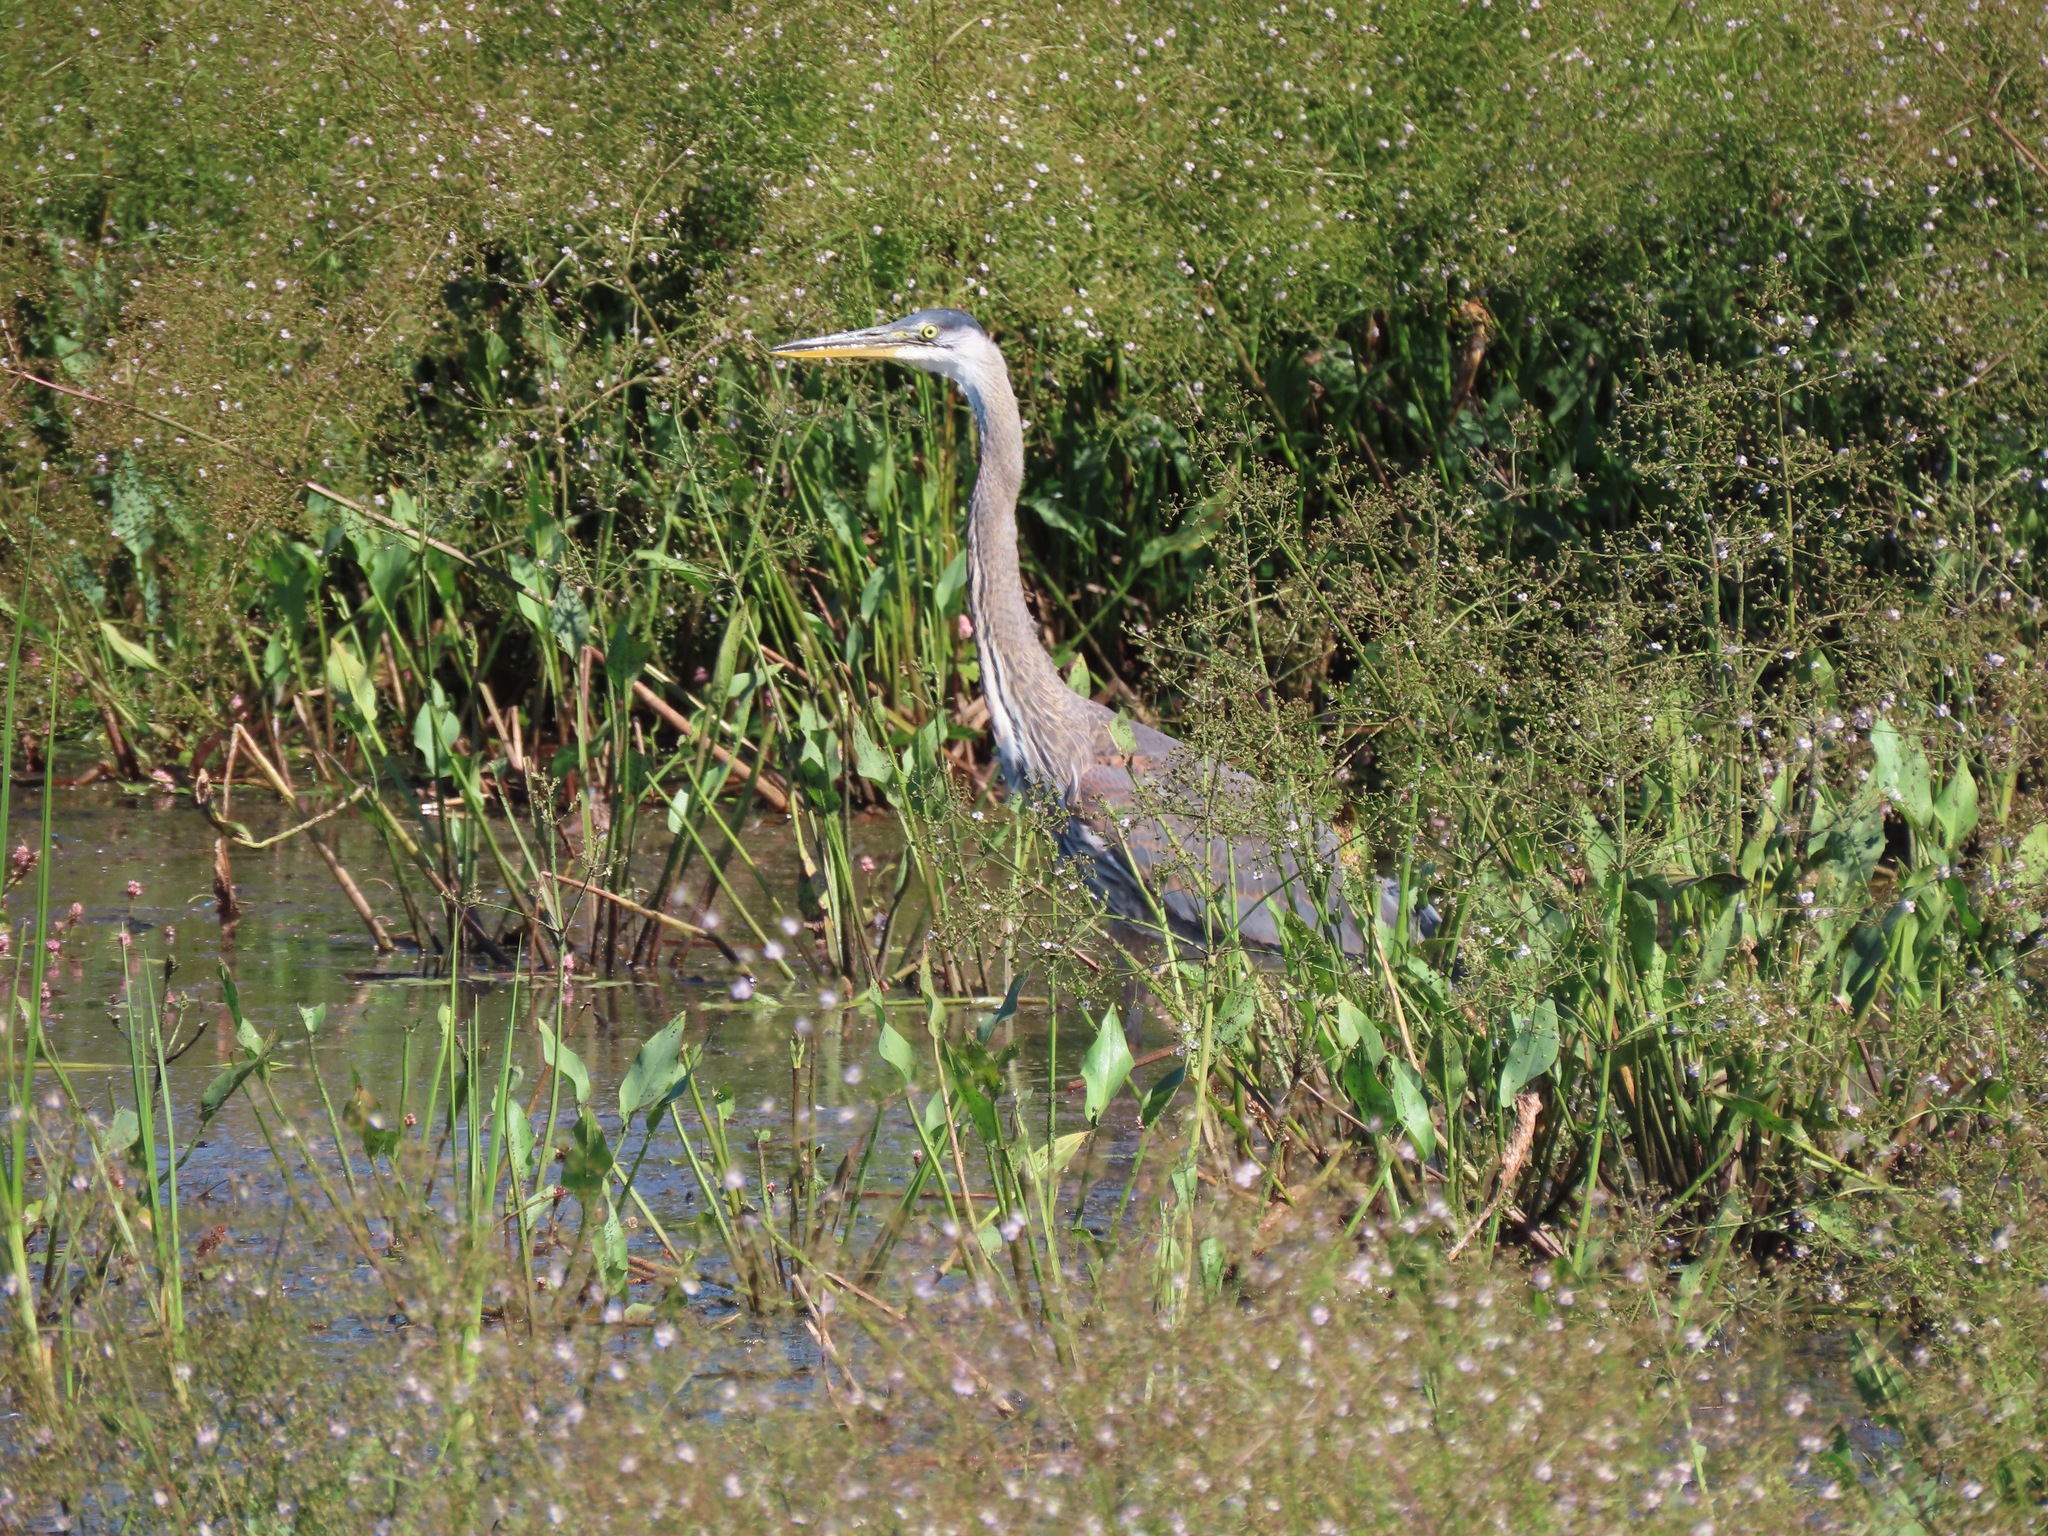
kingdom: Animalia
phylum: Chordata
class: Aves
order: Pelecaniformes
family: Ardeidae
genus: Ardea
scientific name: Ardea herodias
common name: Great blue heron
